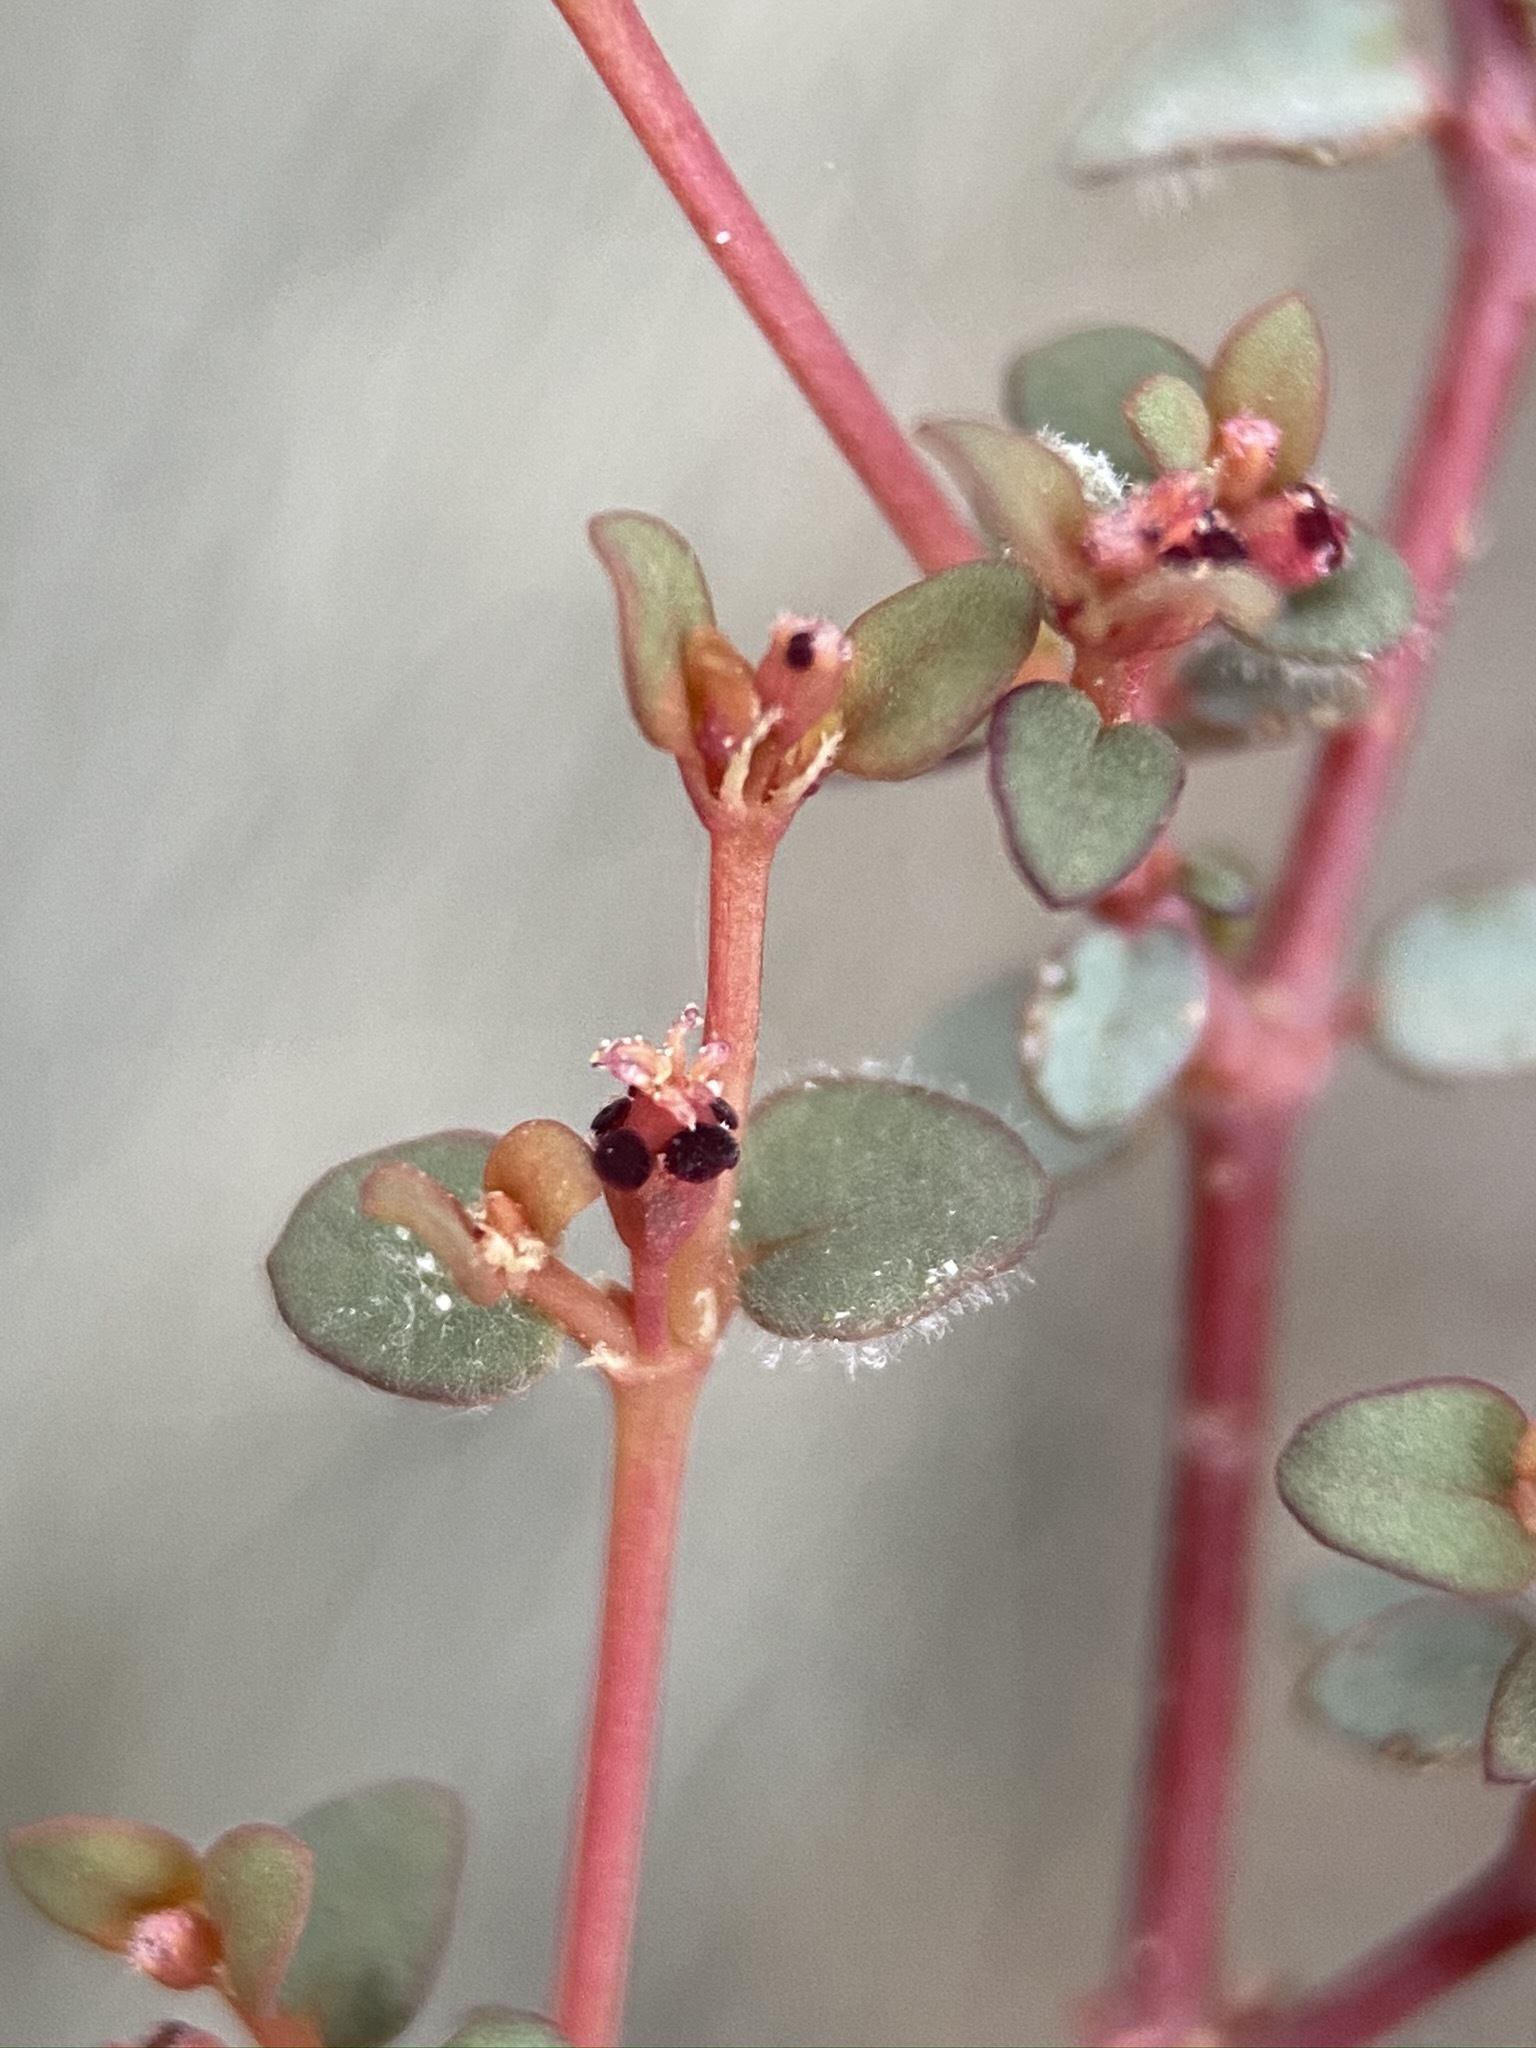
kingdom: Fungi
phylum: Ascomycota
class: Leotiomycetes
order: Helotiales
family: Erysiphaceae
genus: Erysiphe
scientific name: Erysiphe euphorbiicola
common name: American poinsettia powdery mildew
